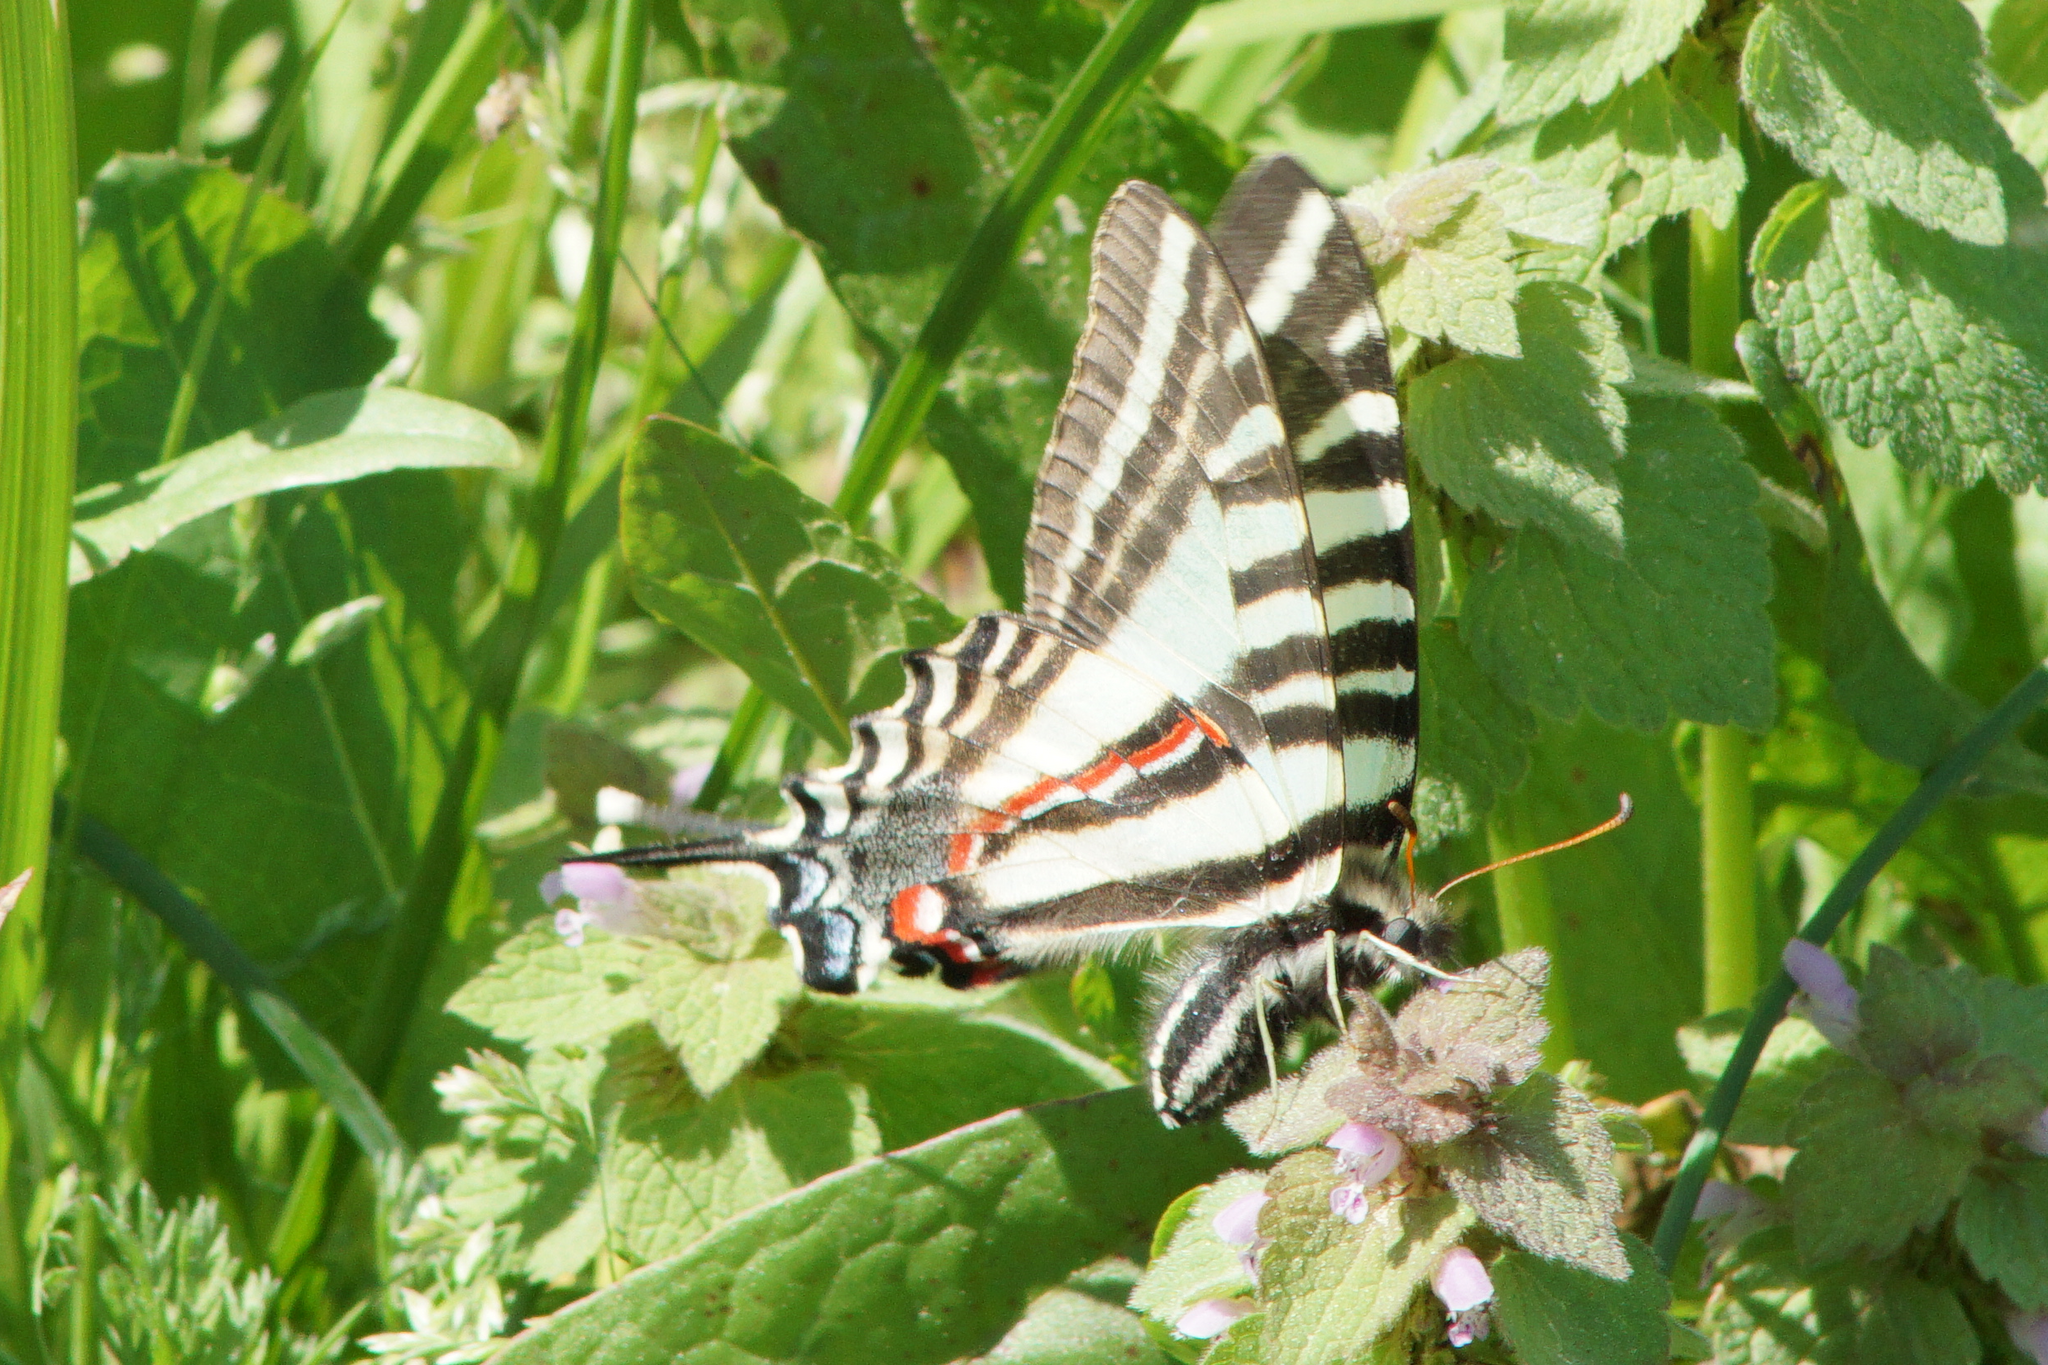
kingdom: Animalia
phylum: Arthropoda
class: Insecta
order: Lepidoptera
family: Papilionidae
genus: Protographium
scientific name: Protographium marcellus
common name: Zebra swallowtail
